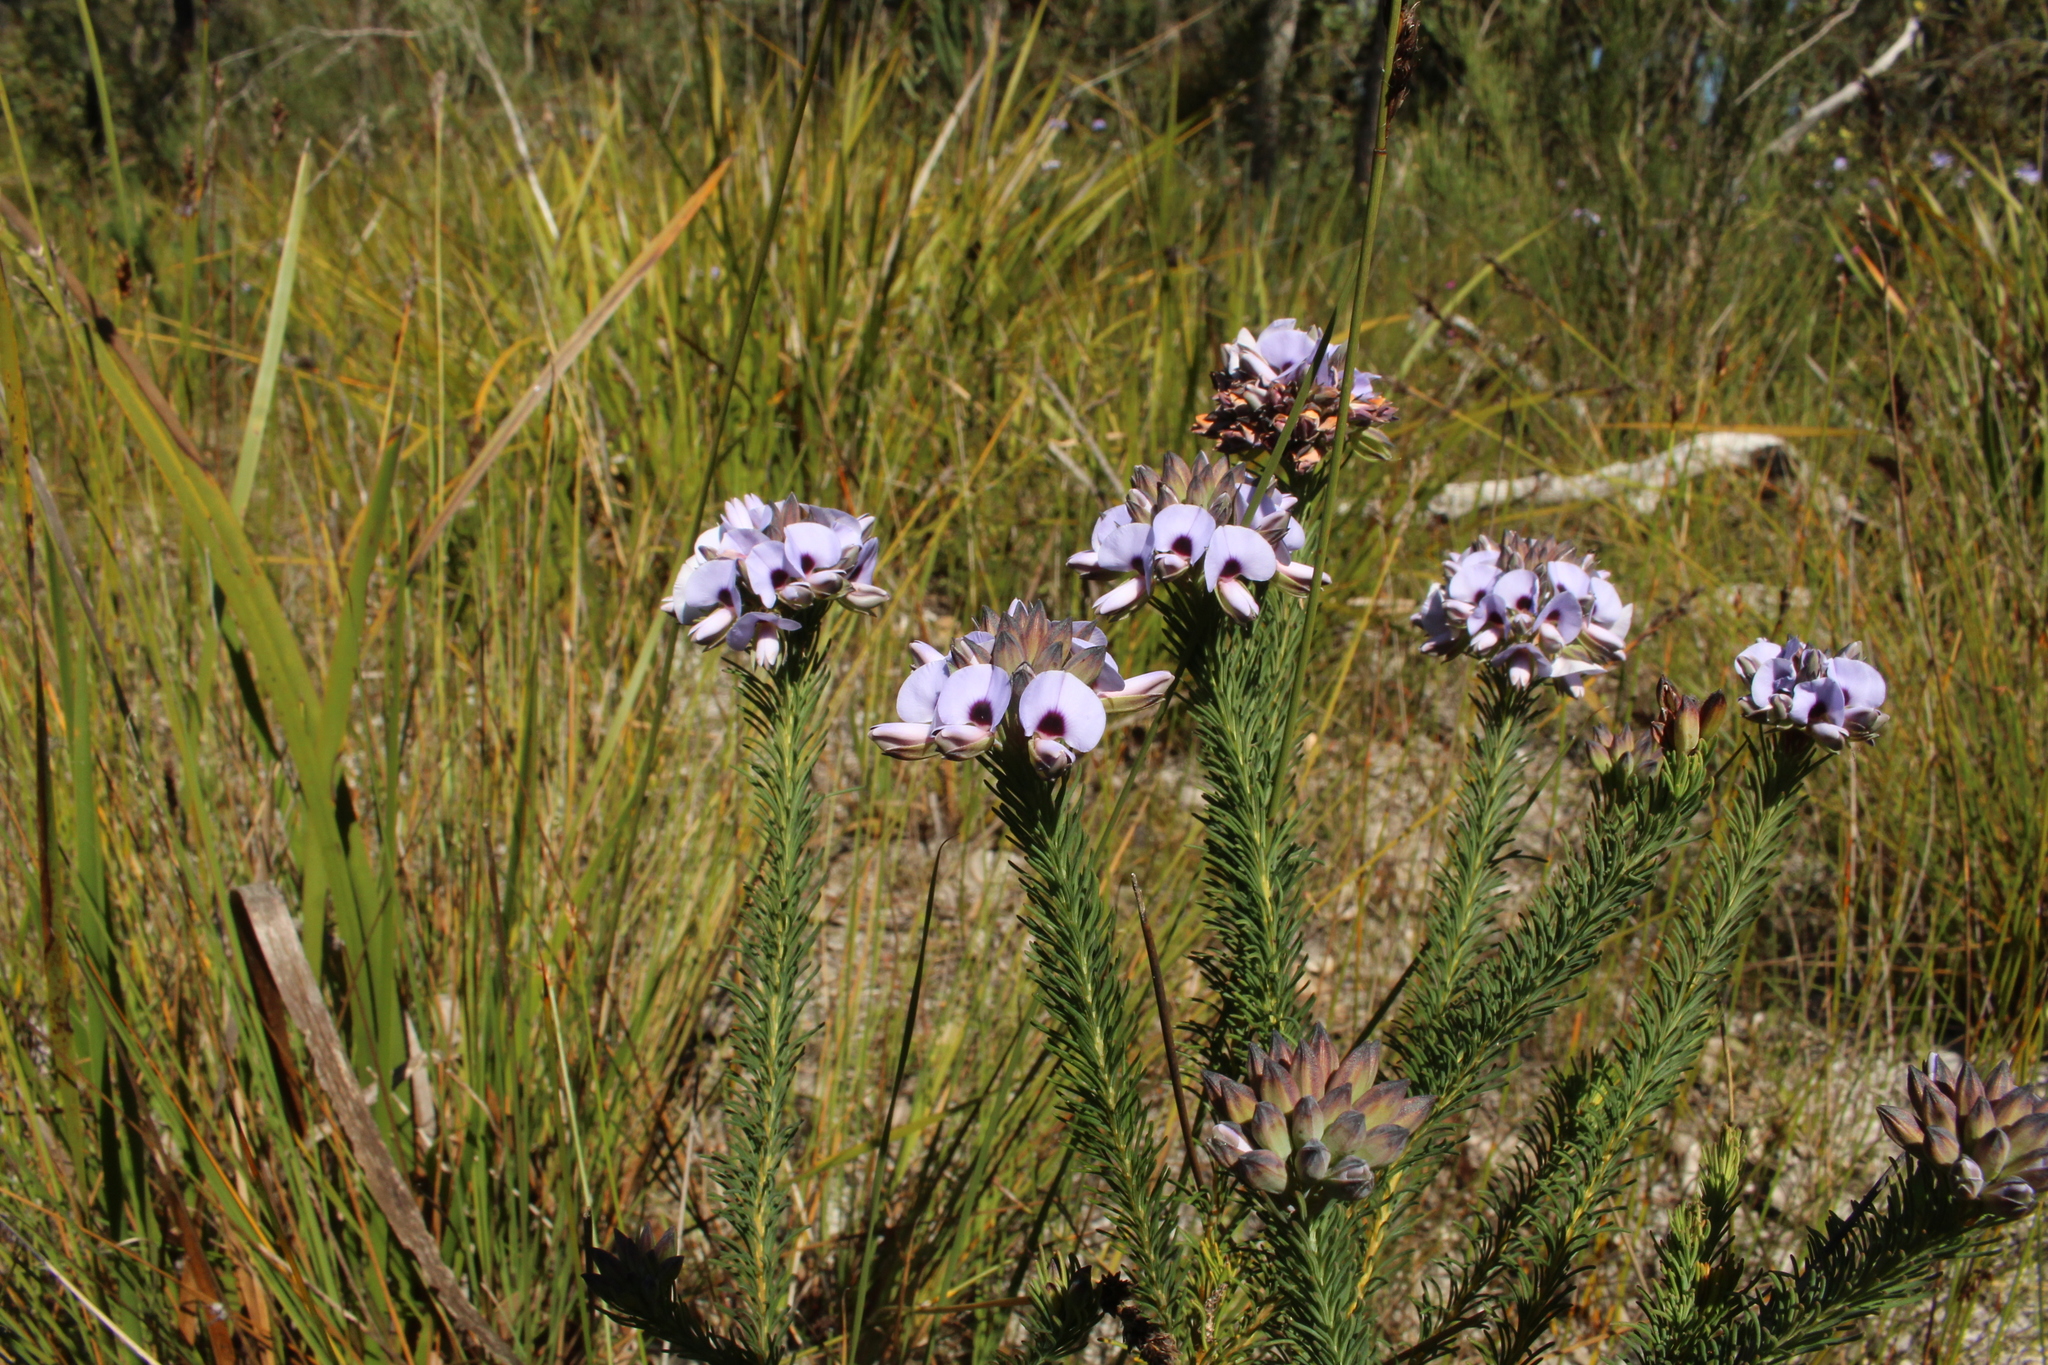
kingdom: Plantae
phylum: Tracheophyta
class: Magnoliopsida
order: Fabales
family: Fabaceae
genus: Gompholobium
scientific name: Gompholobium confertum
